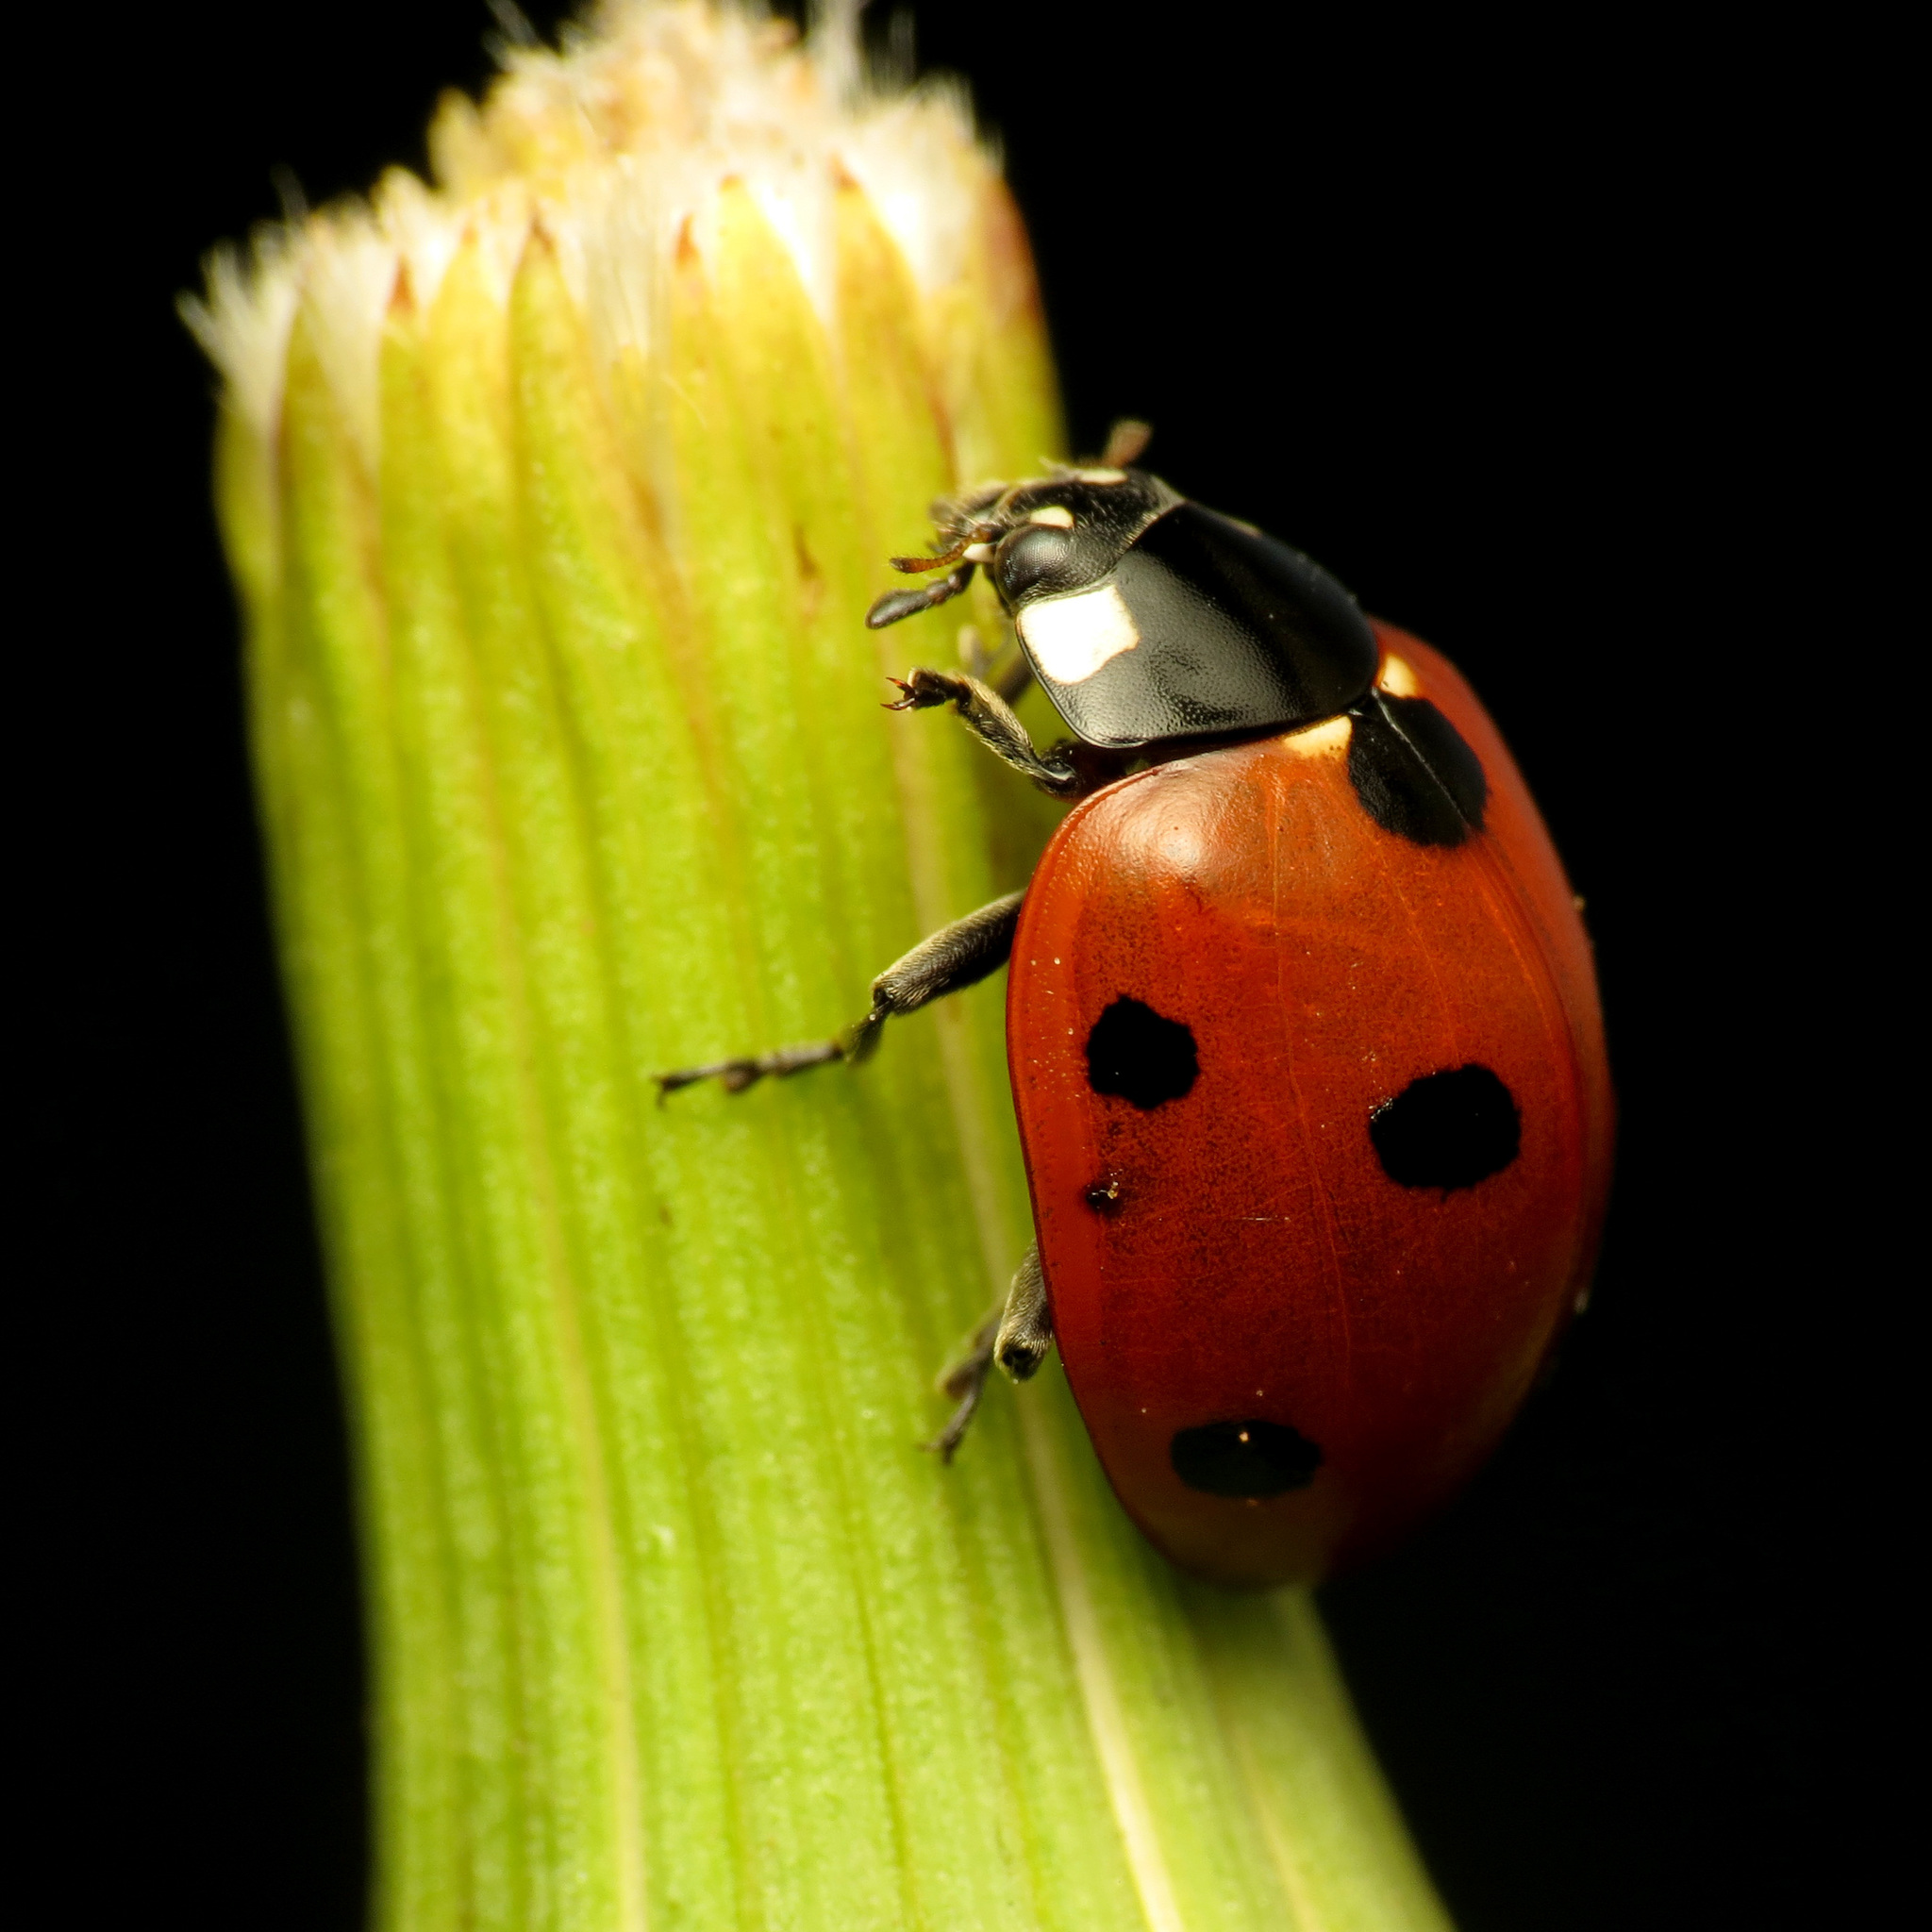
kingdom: Animalia
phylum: Arthropoda
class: Insecta
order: Coleoptera
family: Coccinellidae
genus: Coccinella
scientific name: Coccinella septempunctata
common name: Sevenspotted lady beetle
